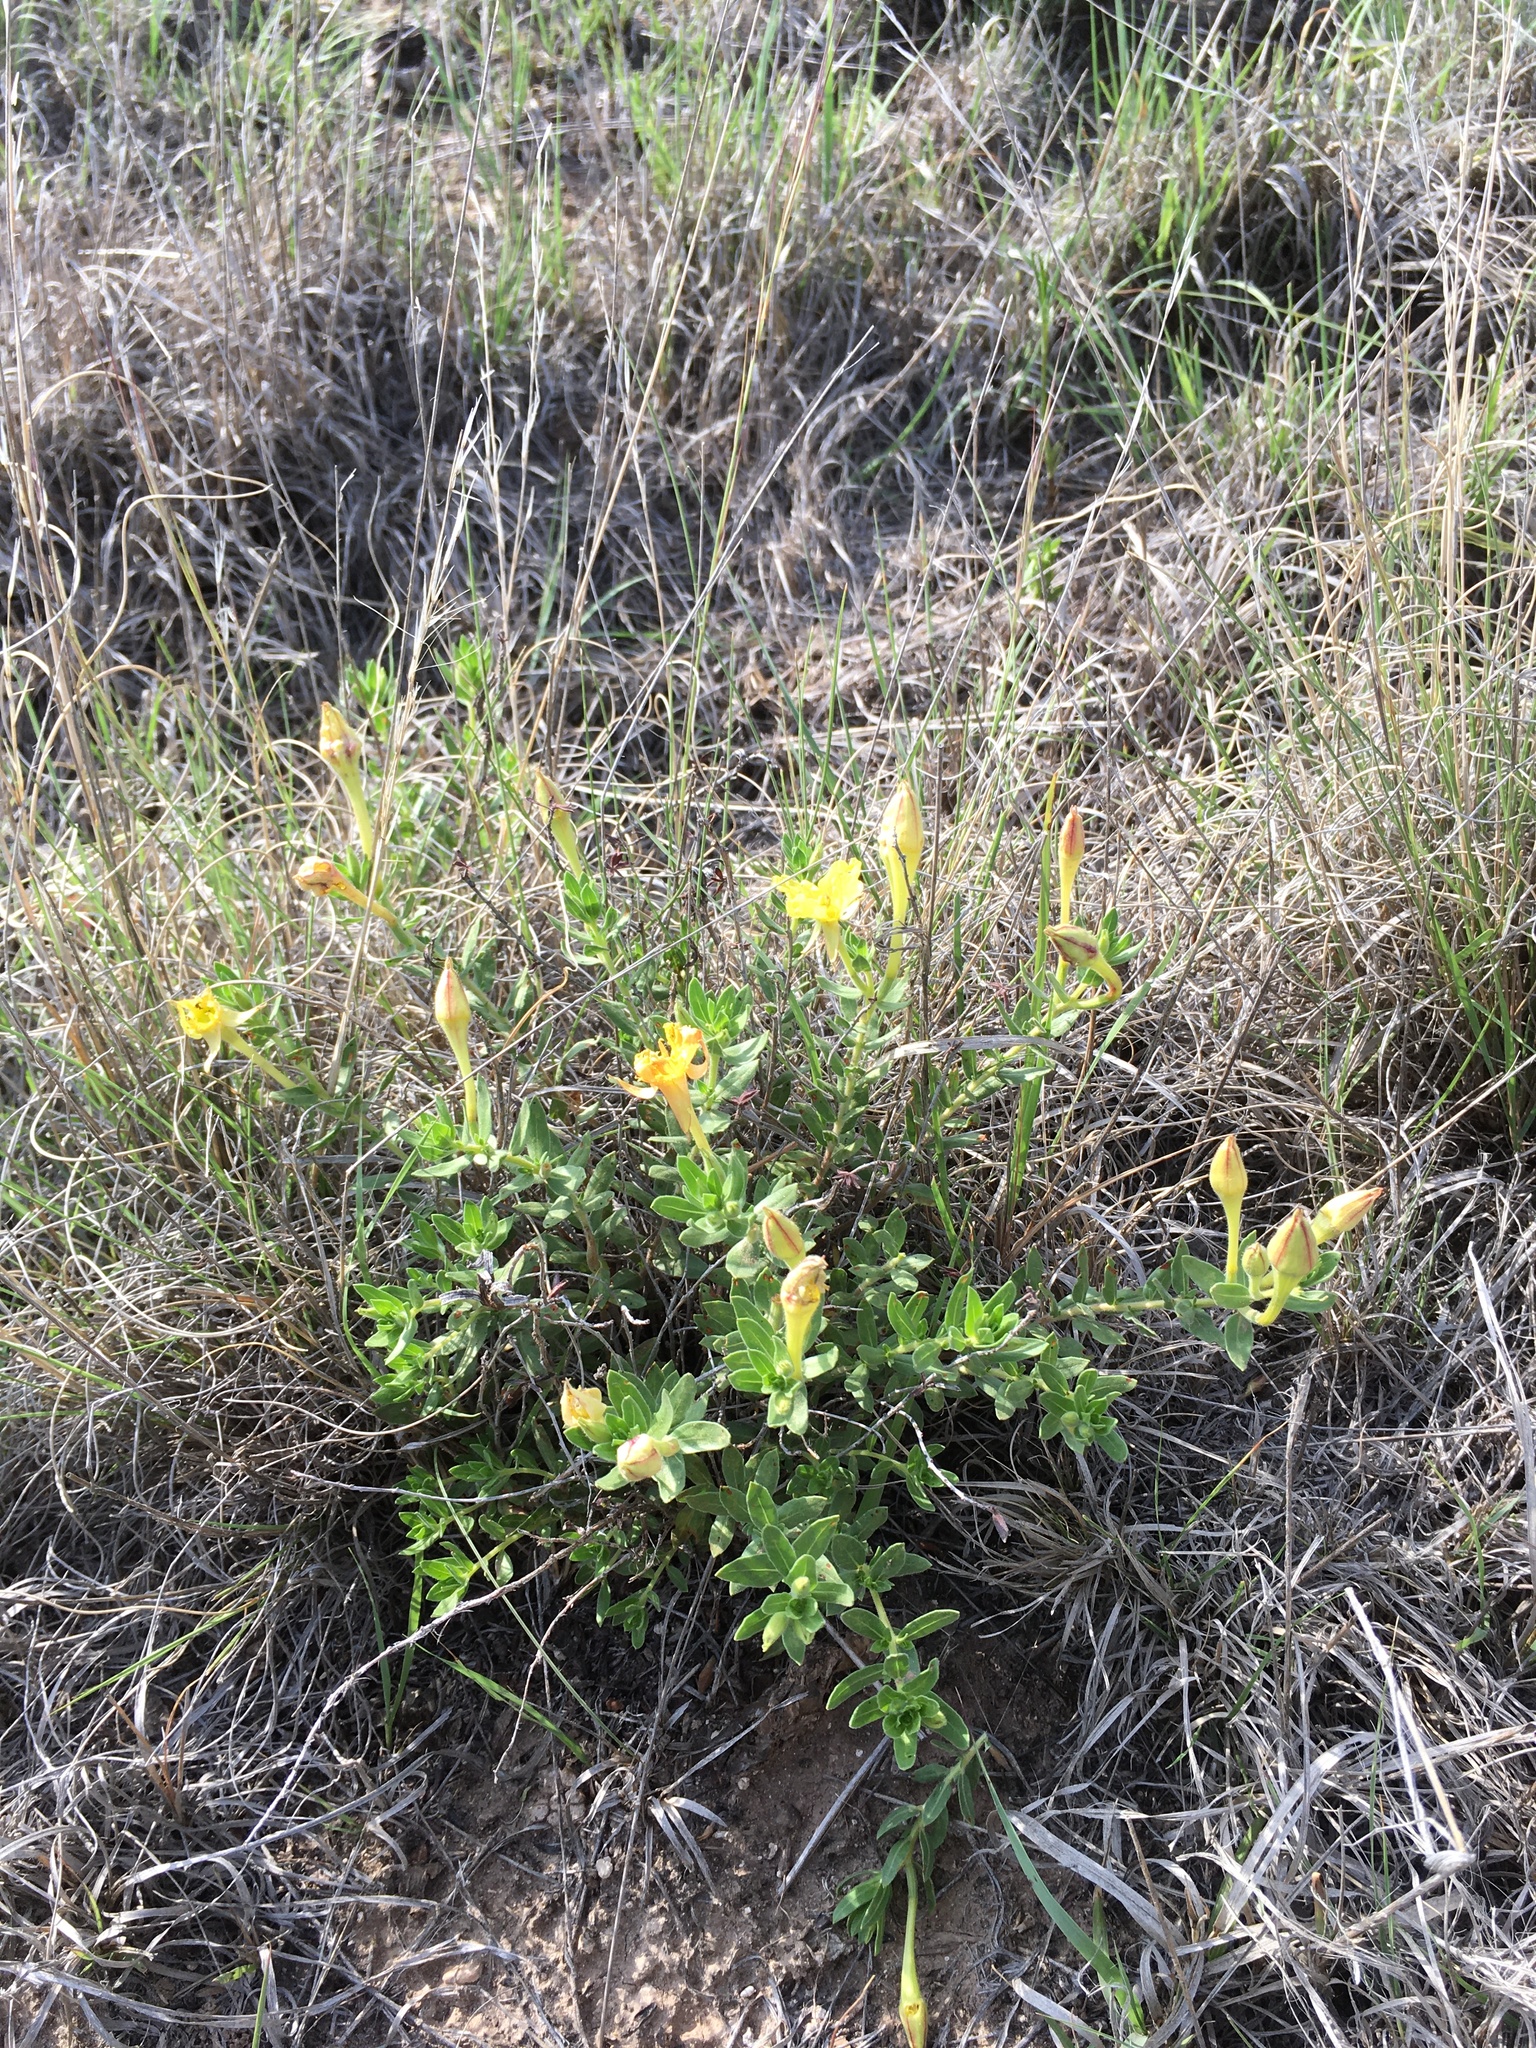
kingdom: Plantae
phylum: Tracheophyta
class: Magnoliopsida
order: Myrtales
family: Onagraceae
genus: Oenothera
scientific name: Oenothera hartwegii
